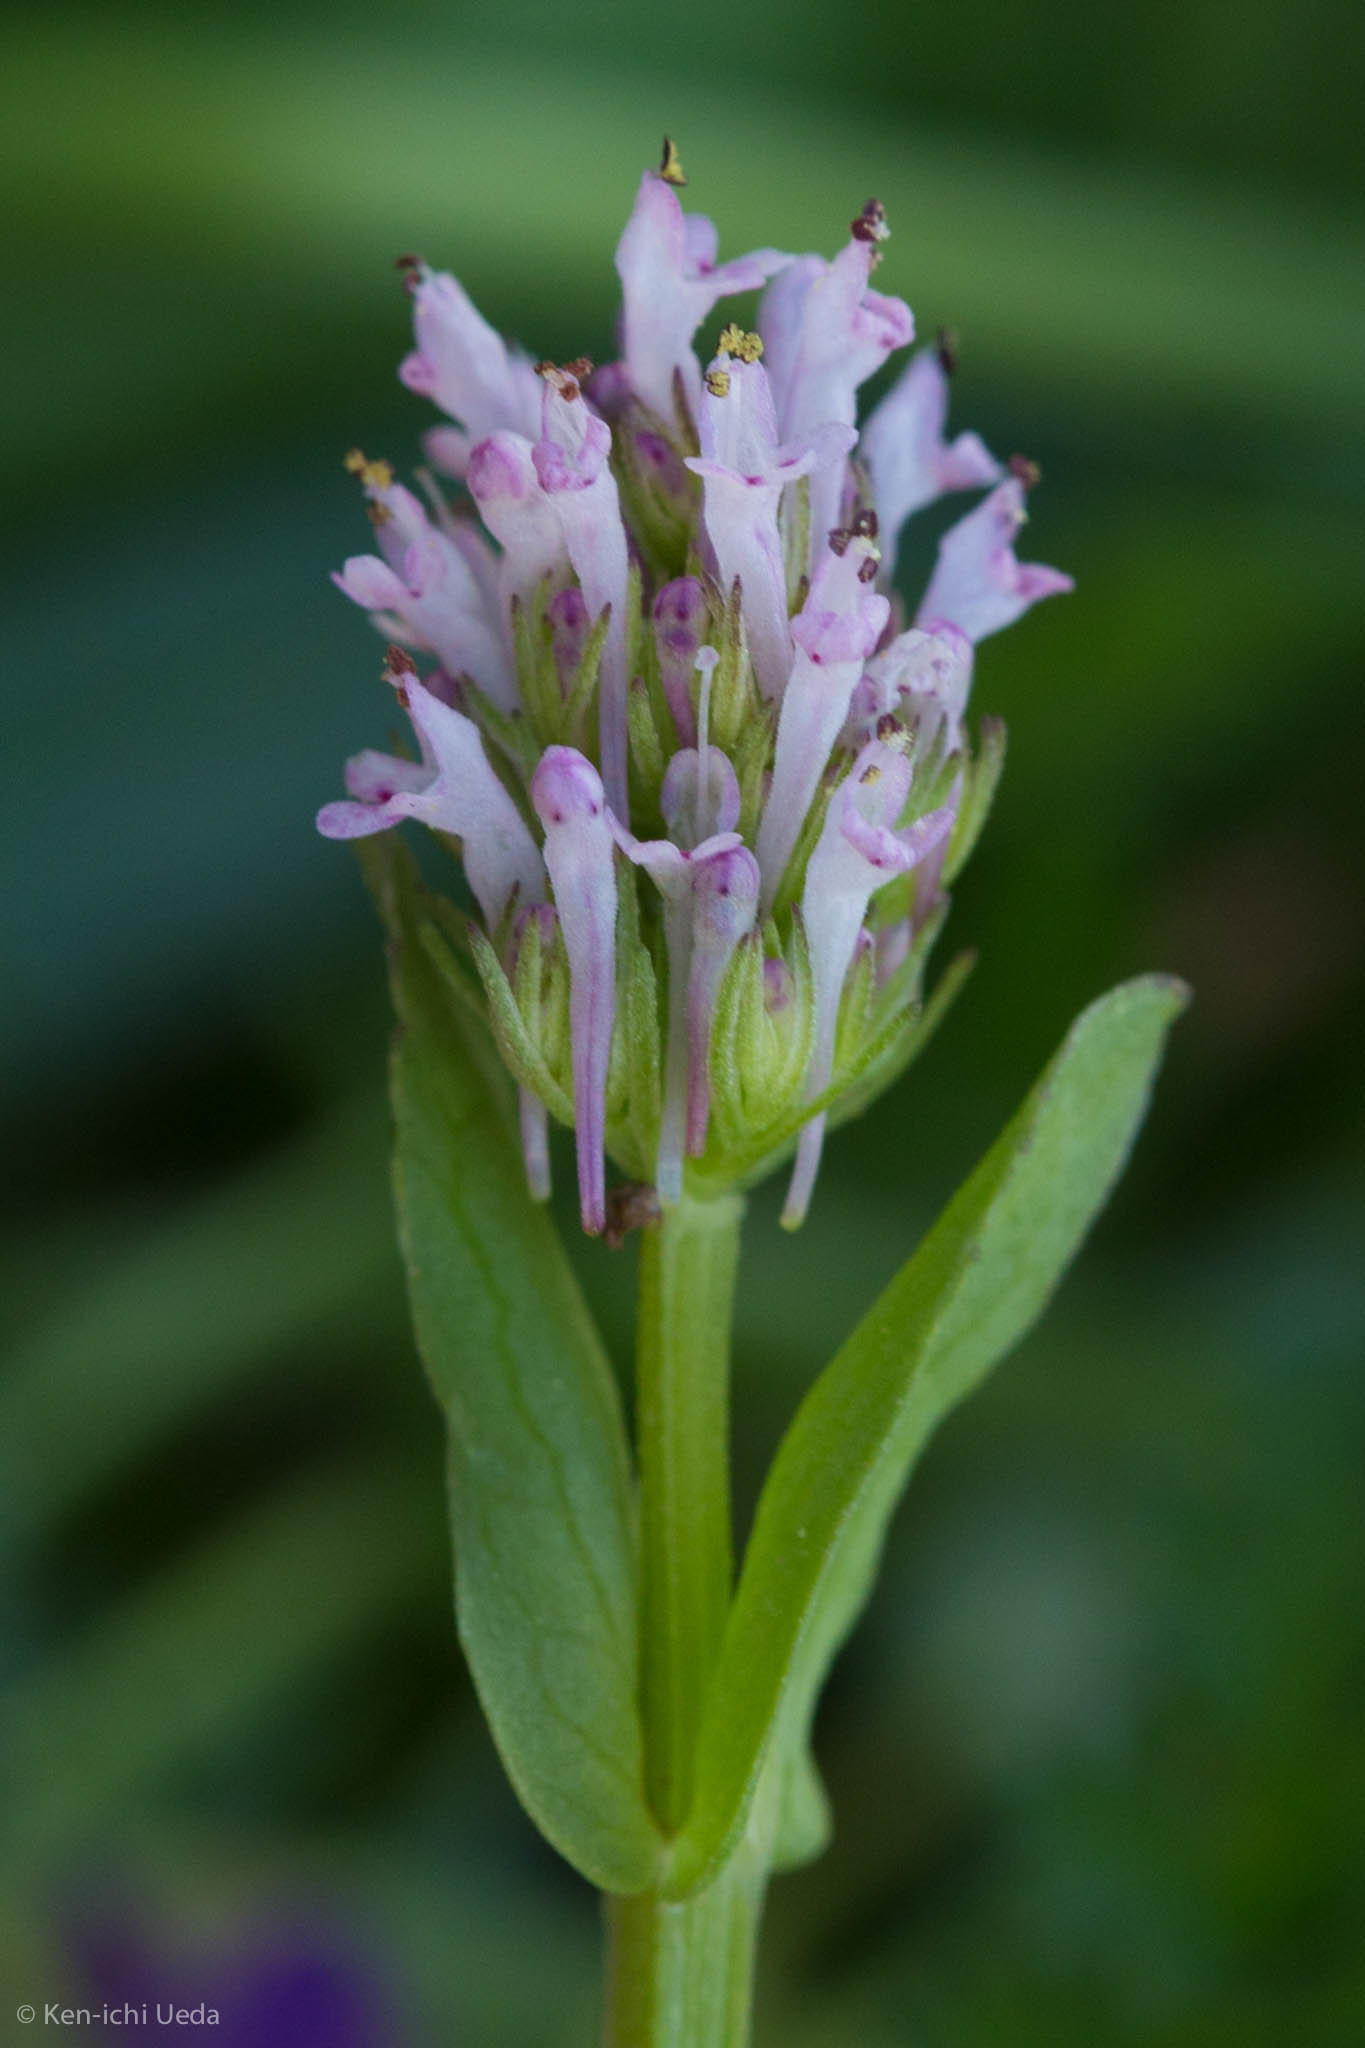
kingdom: Plantae
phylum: Tracheophyta
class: Magnoliopsida
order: Dipsacales
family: Caprifoliaceae
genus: Plectritis
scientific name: Plectritis ciliosa
